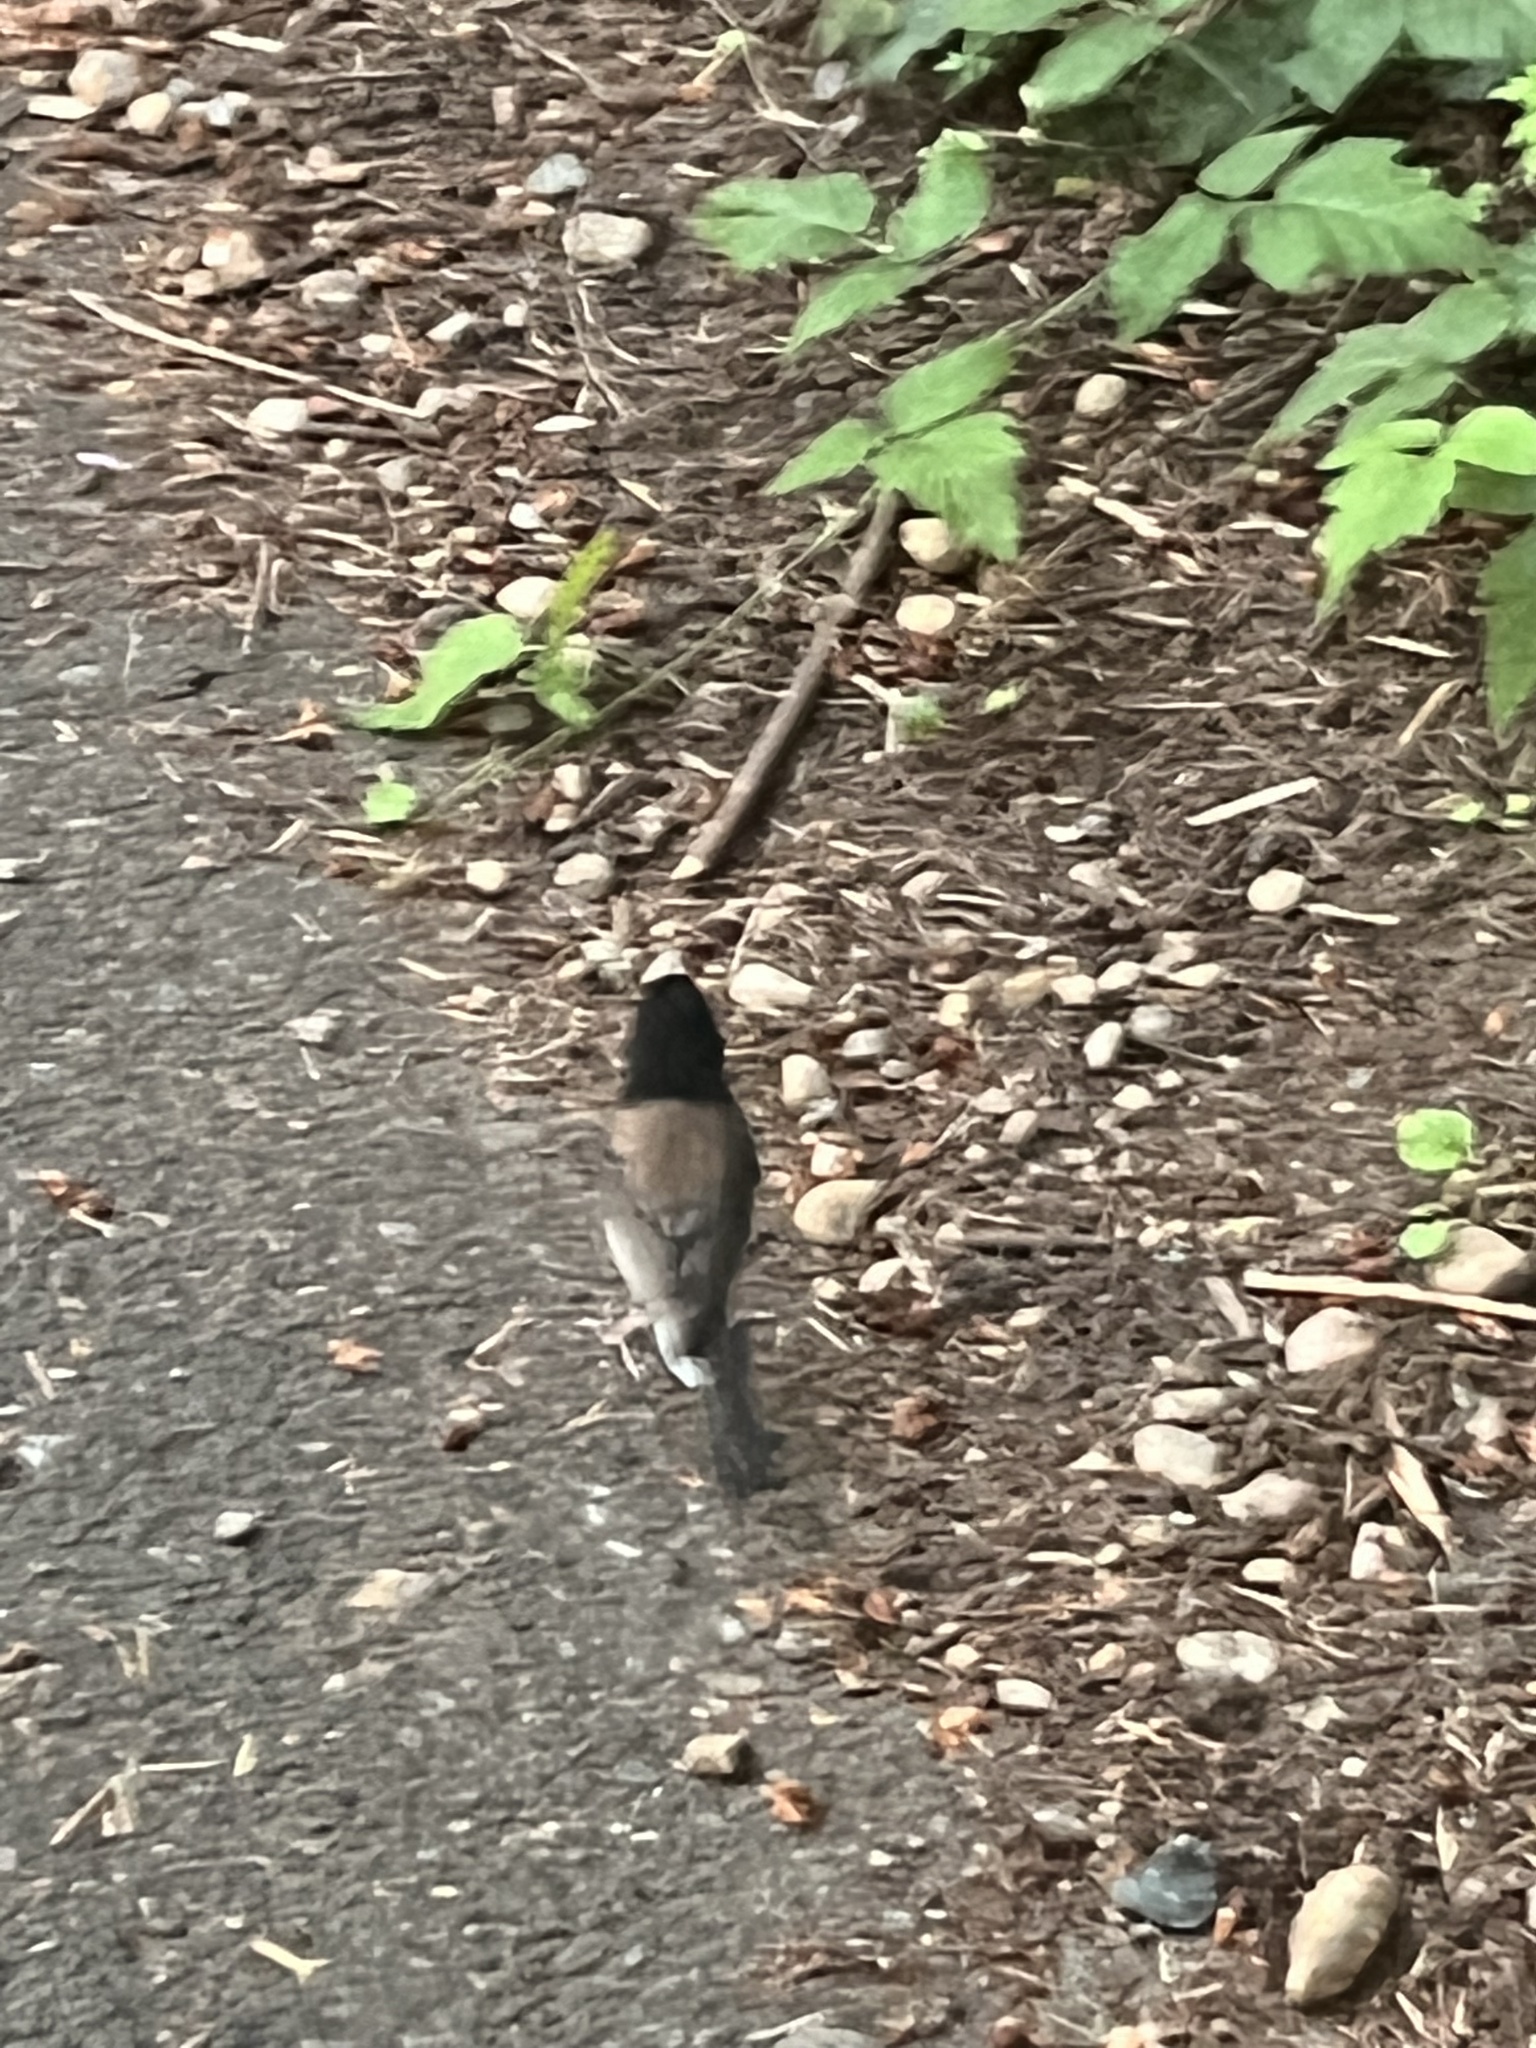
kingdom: Animalia
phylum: Chordata
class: Aves
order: Passeriformes
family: Passerellidae
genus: Junco
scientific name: Junco hyemalis
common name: Dark-eyed junco
